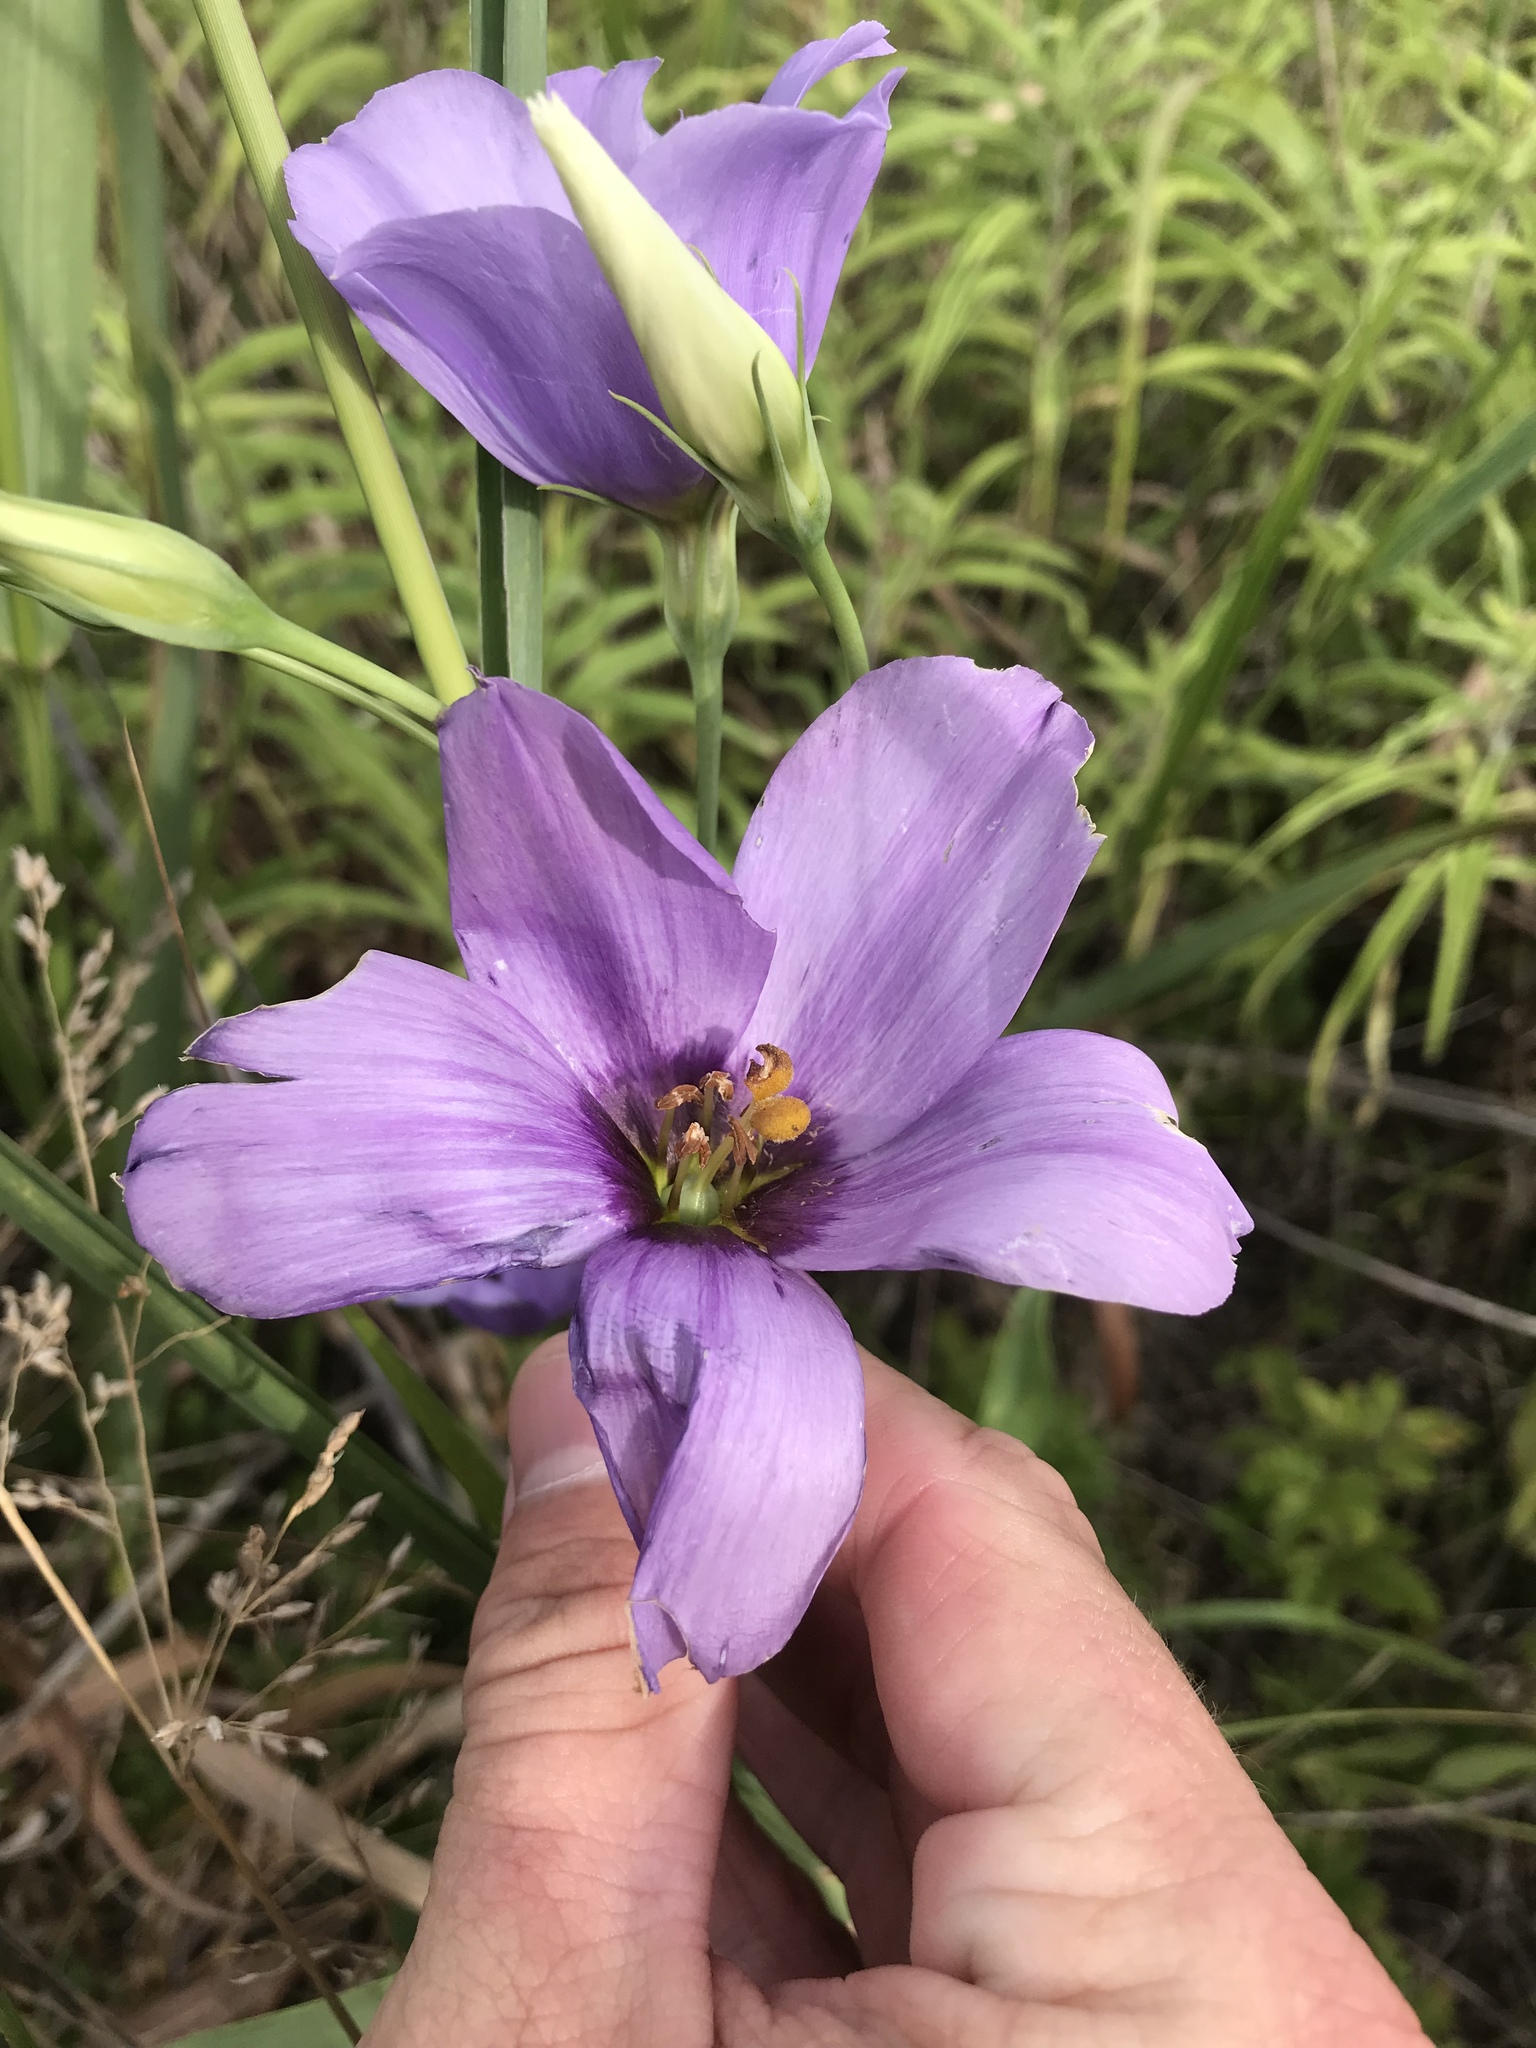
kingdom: Plantae
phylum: Tracheophyta
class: Magnoliopsida
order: Gentianales
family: Gentianaceae
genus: Eustoma
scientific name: Eustoma russellianum
